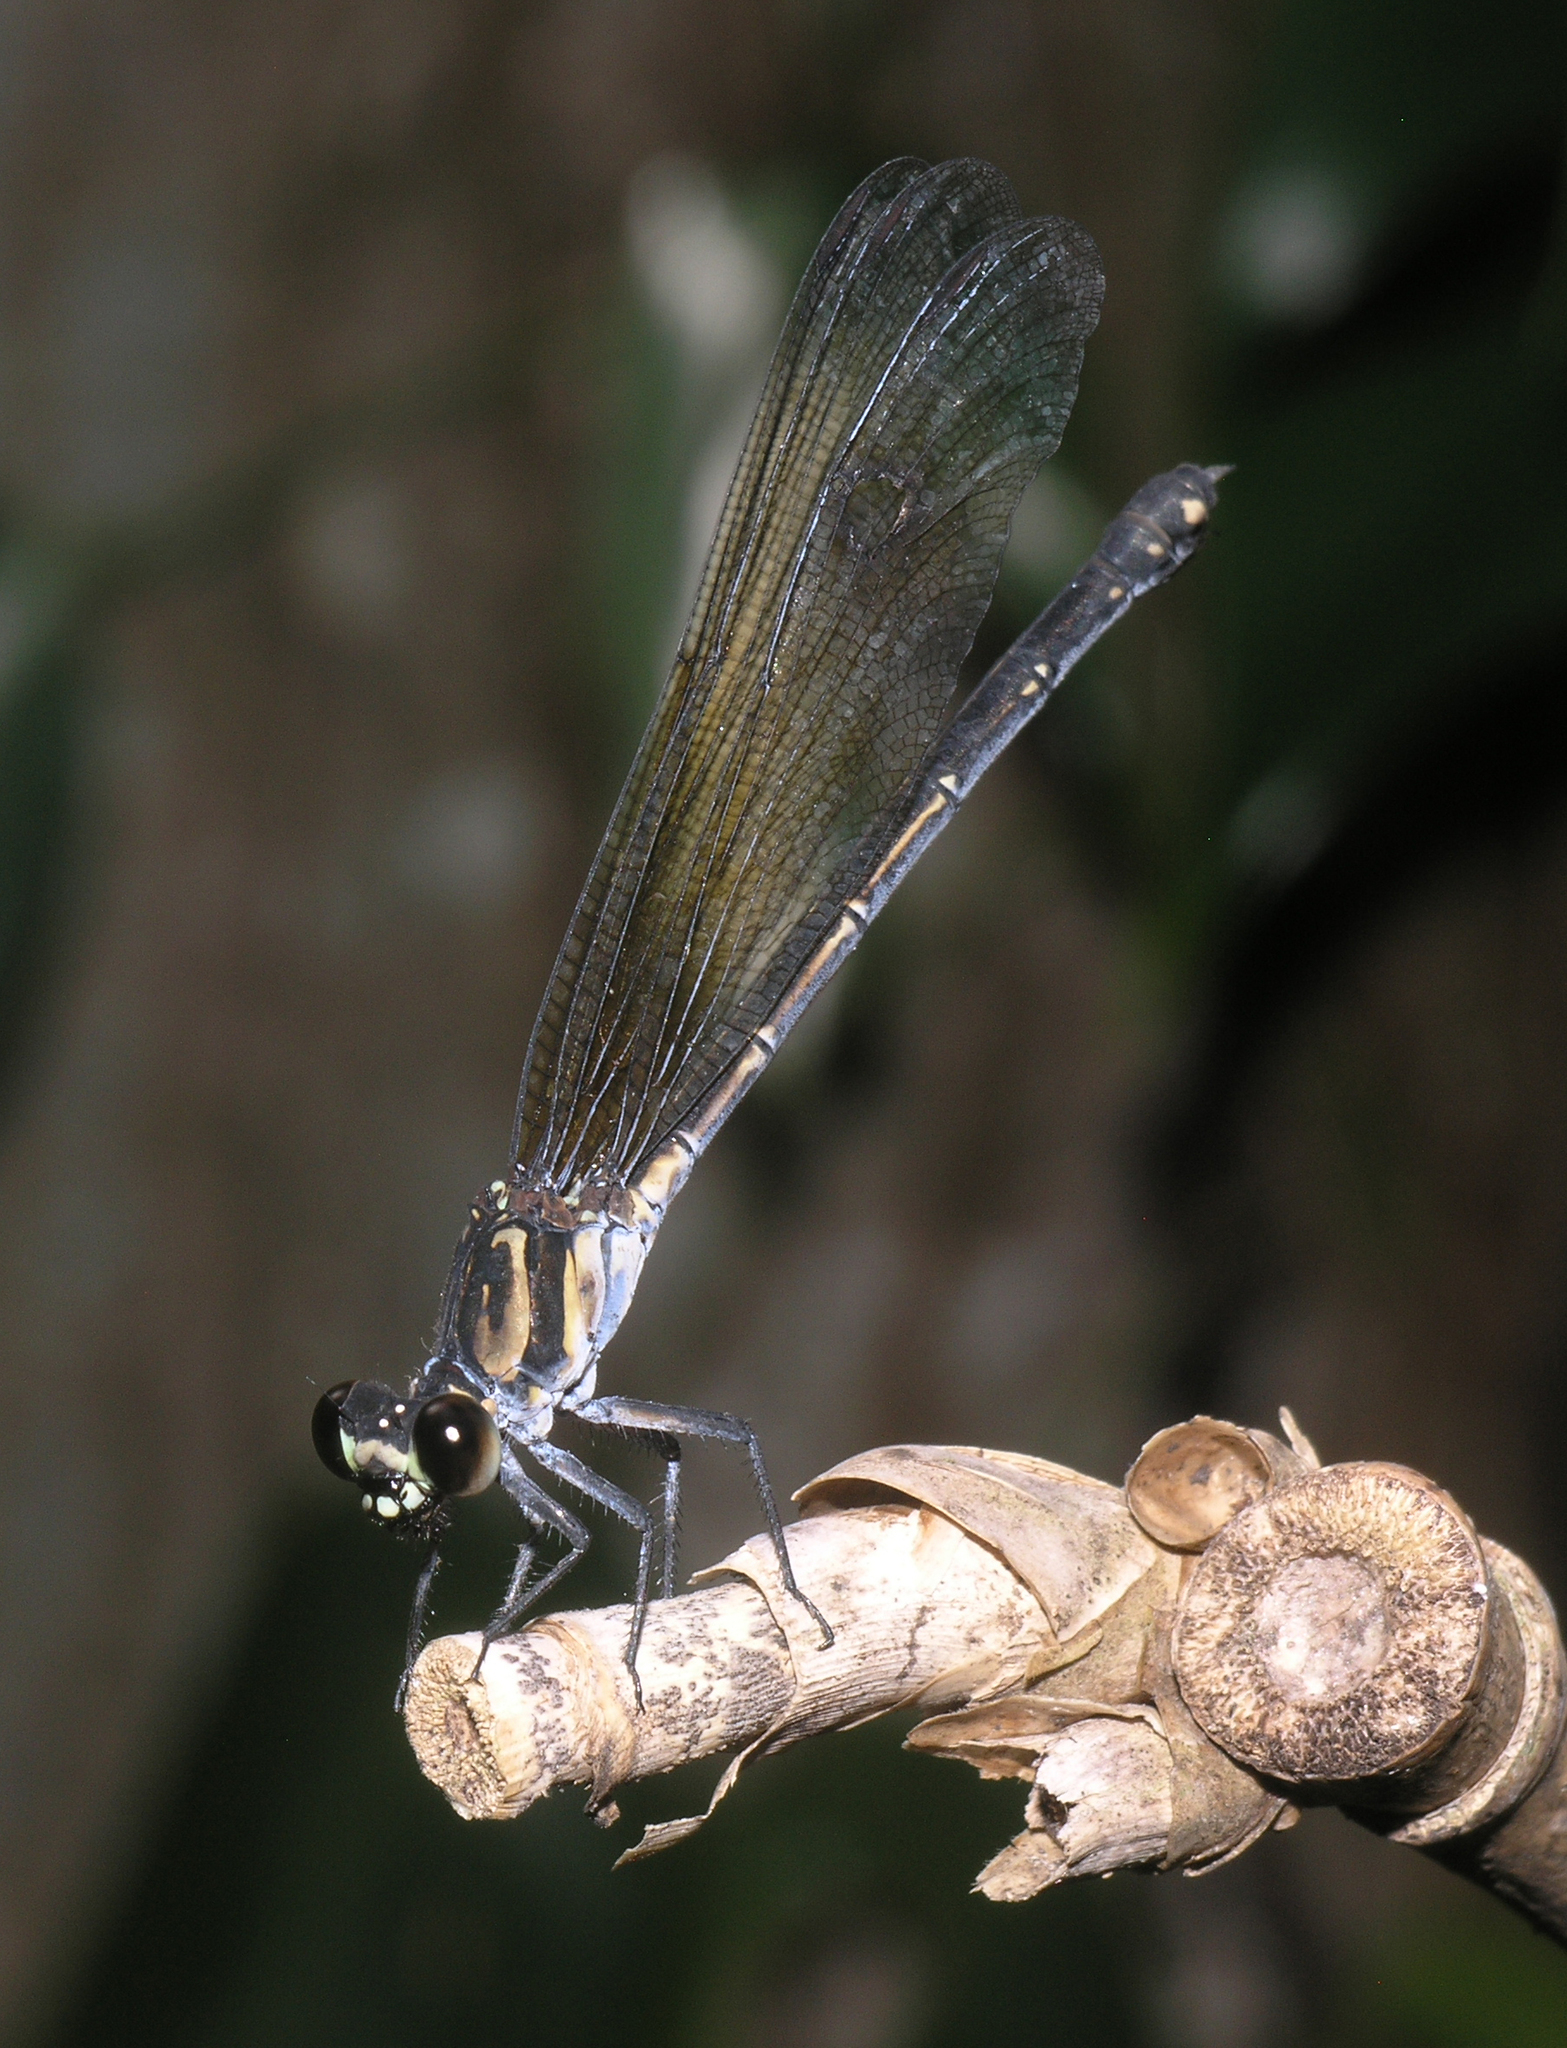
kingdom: Animalia
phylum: Arthropoda
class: Insecta
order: Odonata
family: Euphaeidae
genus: Euphaea
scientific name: Euphaea lara
